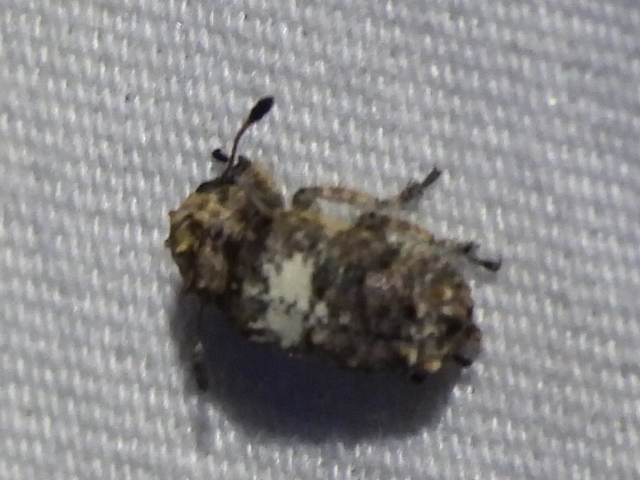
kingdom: Animalia
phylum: Arthropoda
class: Insecta
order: Coleoptera
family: Anthribidae
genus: Toxonotus
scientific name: Toxonotus cornutus
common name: Fungus weevil
